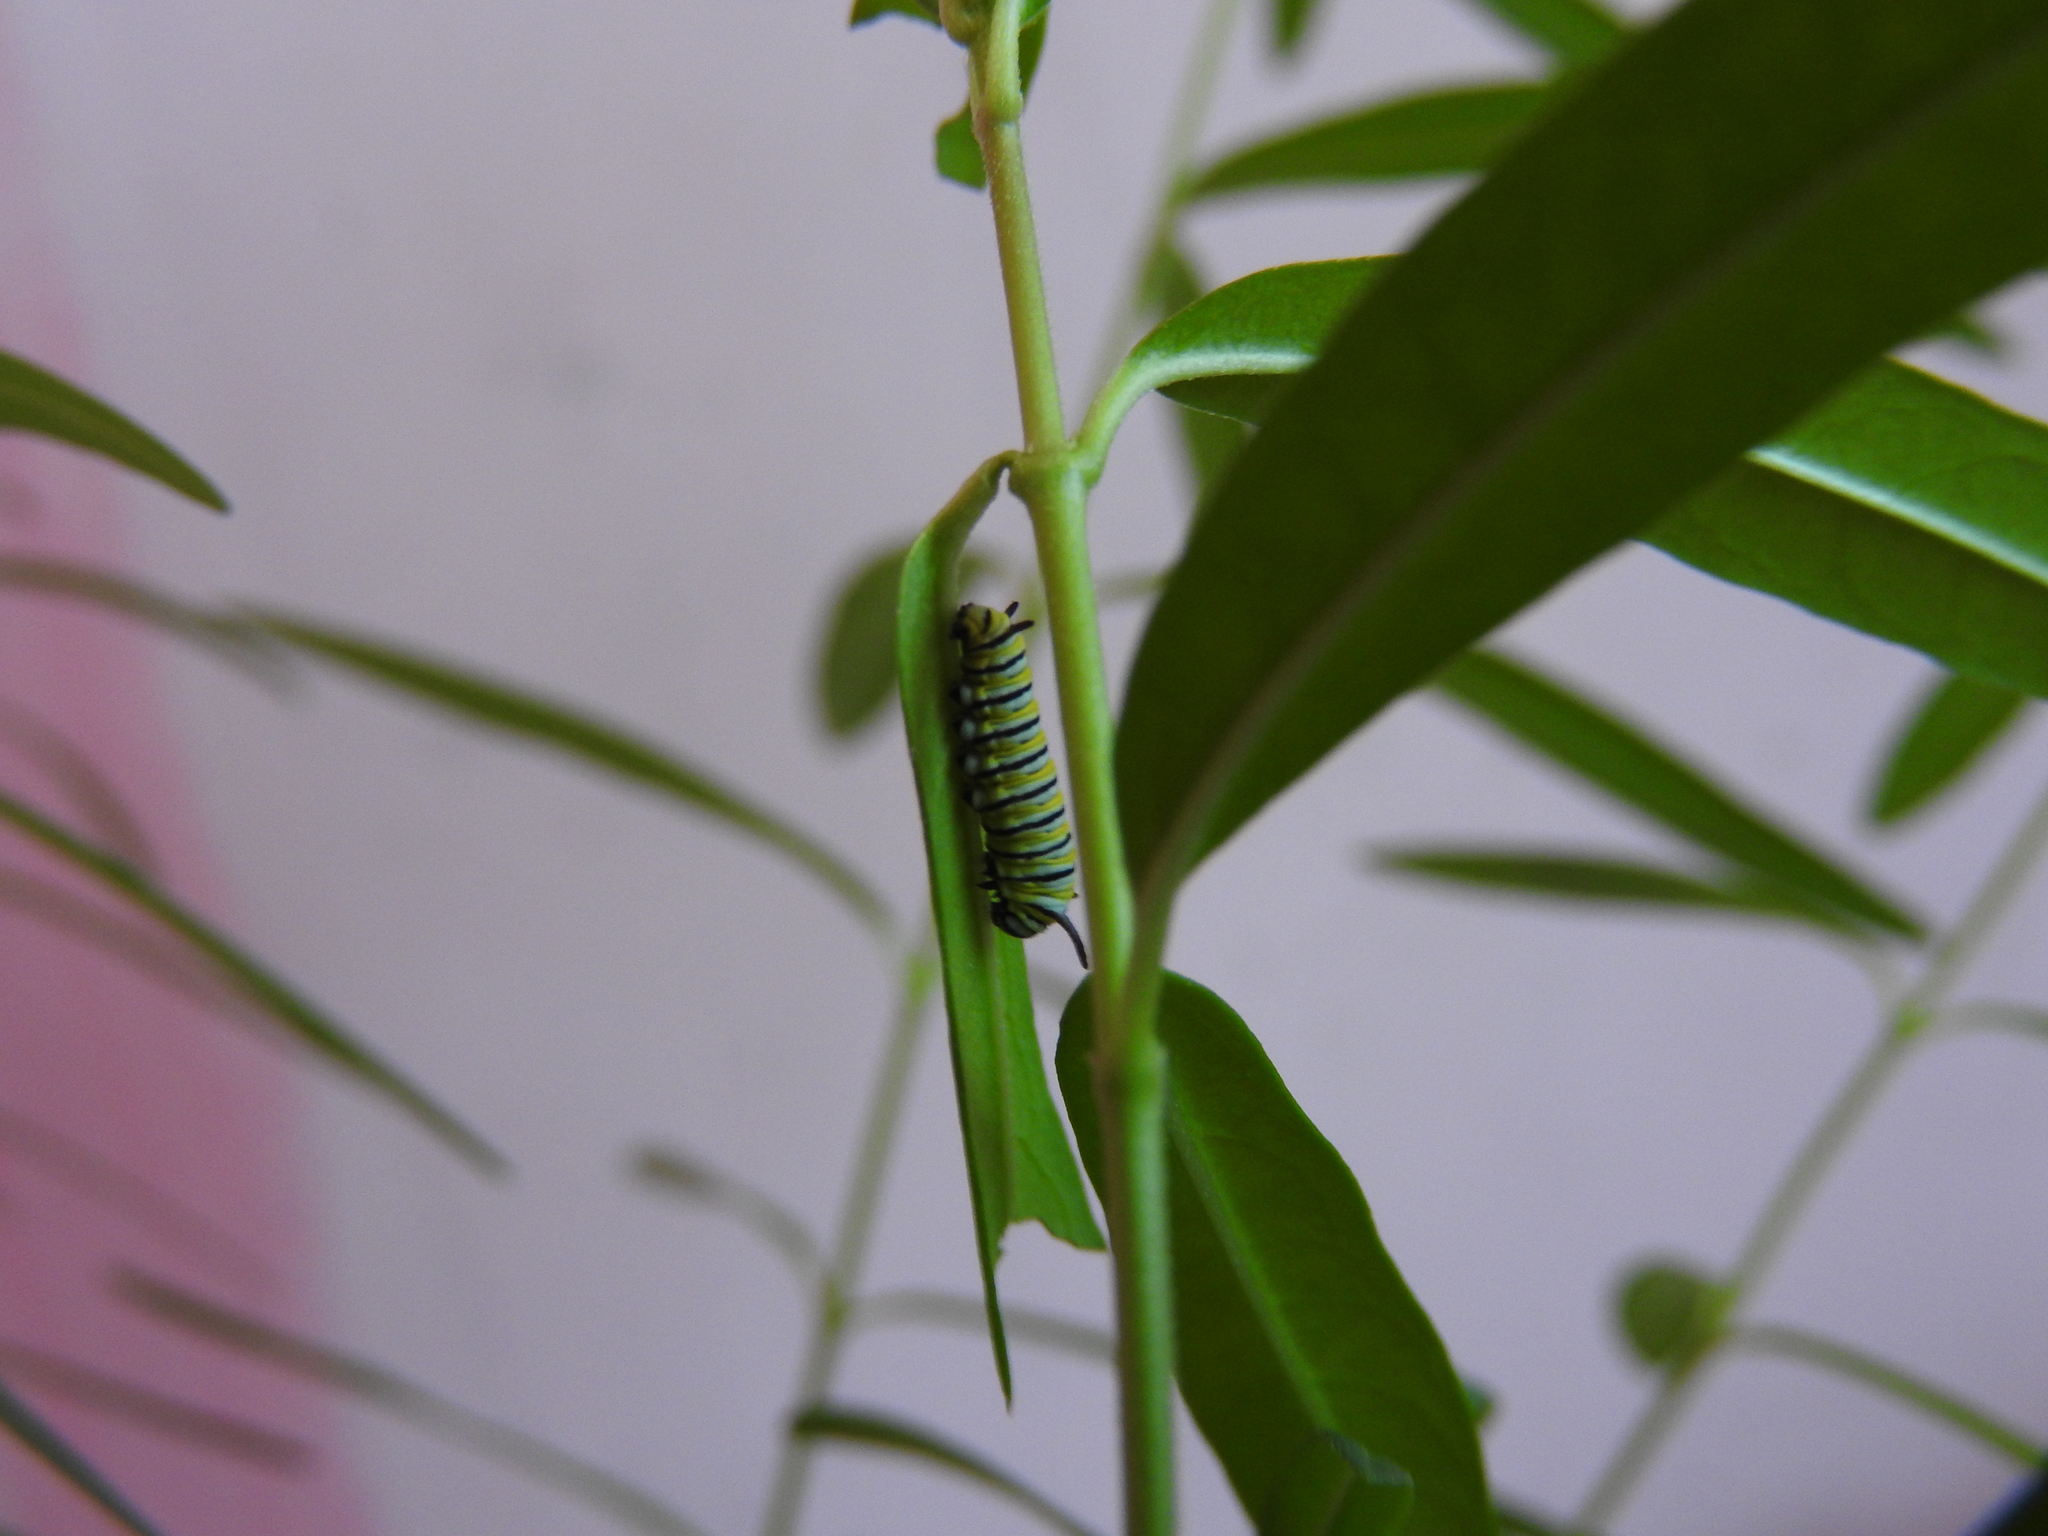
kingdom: Animalia
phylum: Arthropoda
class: Insecta
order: Lepidoptera
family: Nymphalidae
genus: Danaus
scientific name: Danaus plexippus
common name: Monarch
